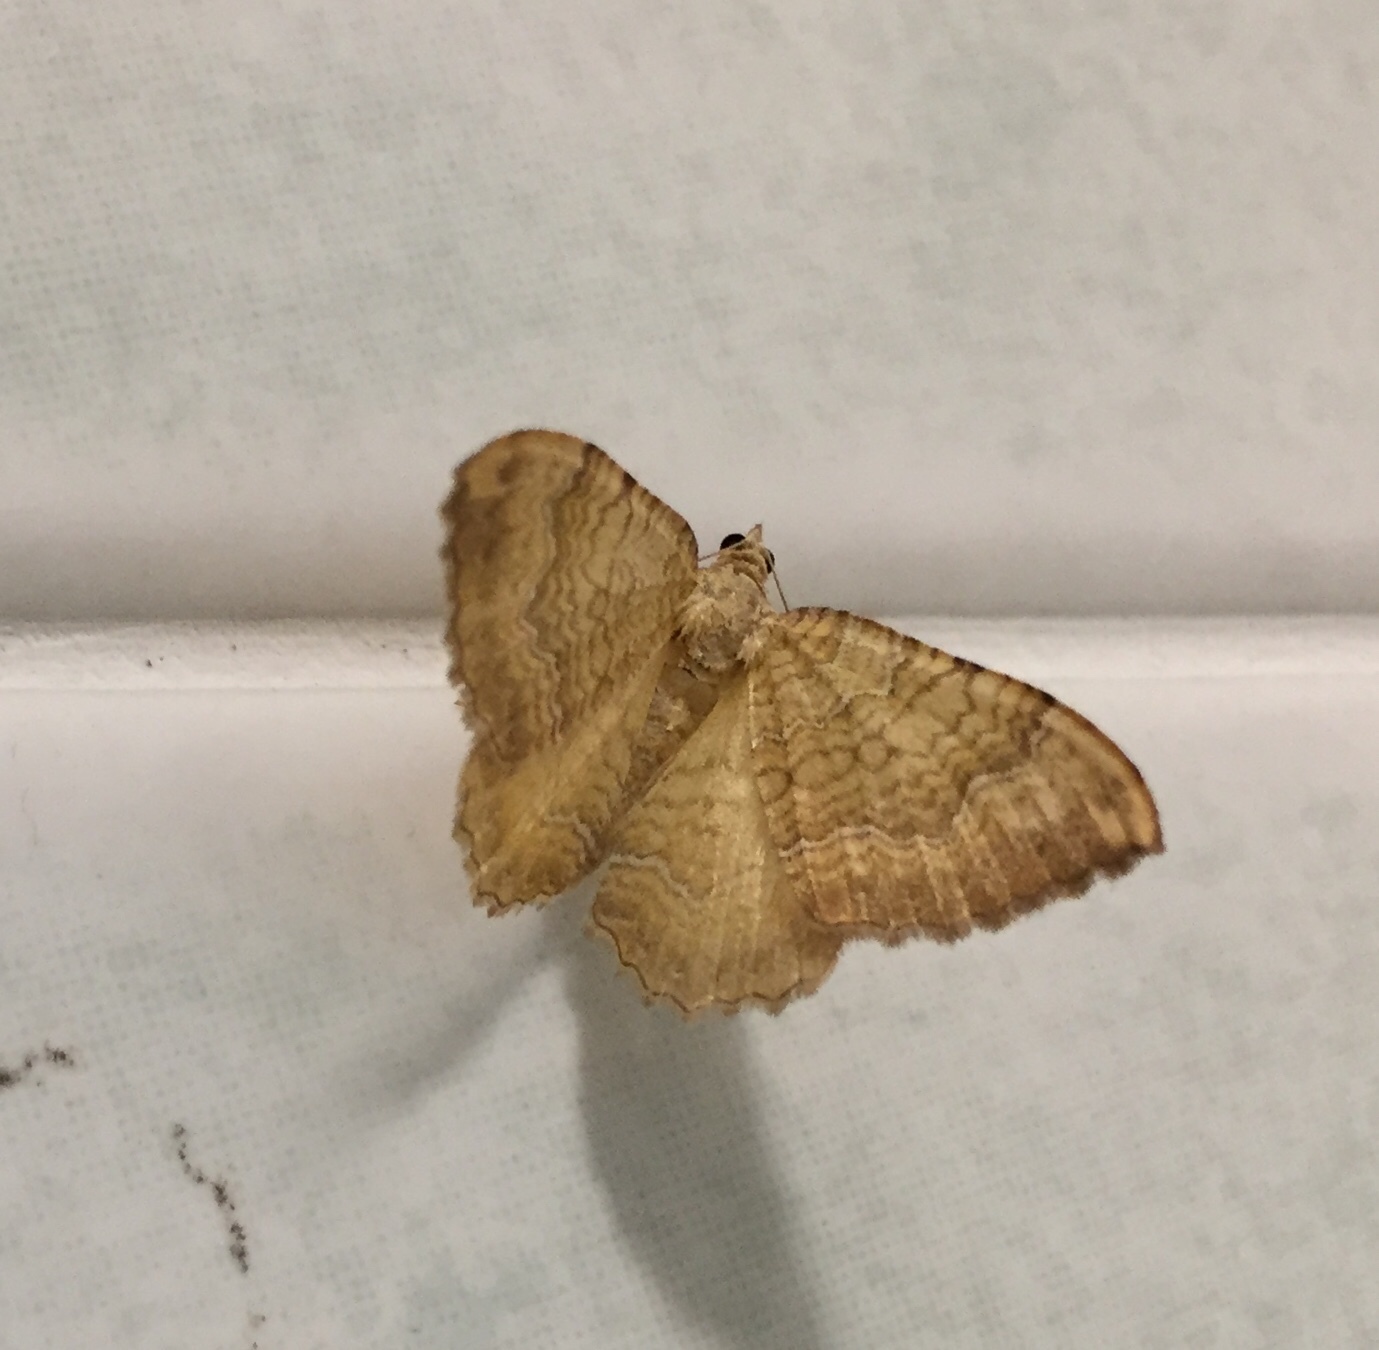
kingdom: Animalia
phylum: Arthropoda
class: Insecta
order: Lepidoptera
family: Geometridae
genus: Camptogramma
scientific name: Camptogramma bilineata
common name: Yellow shell
